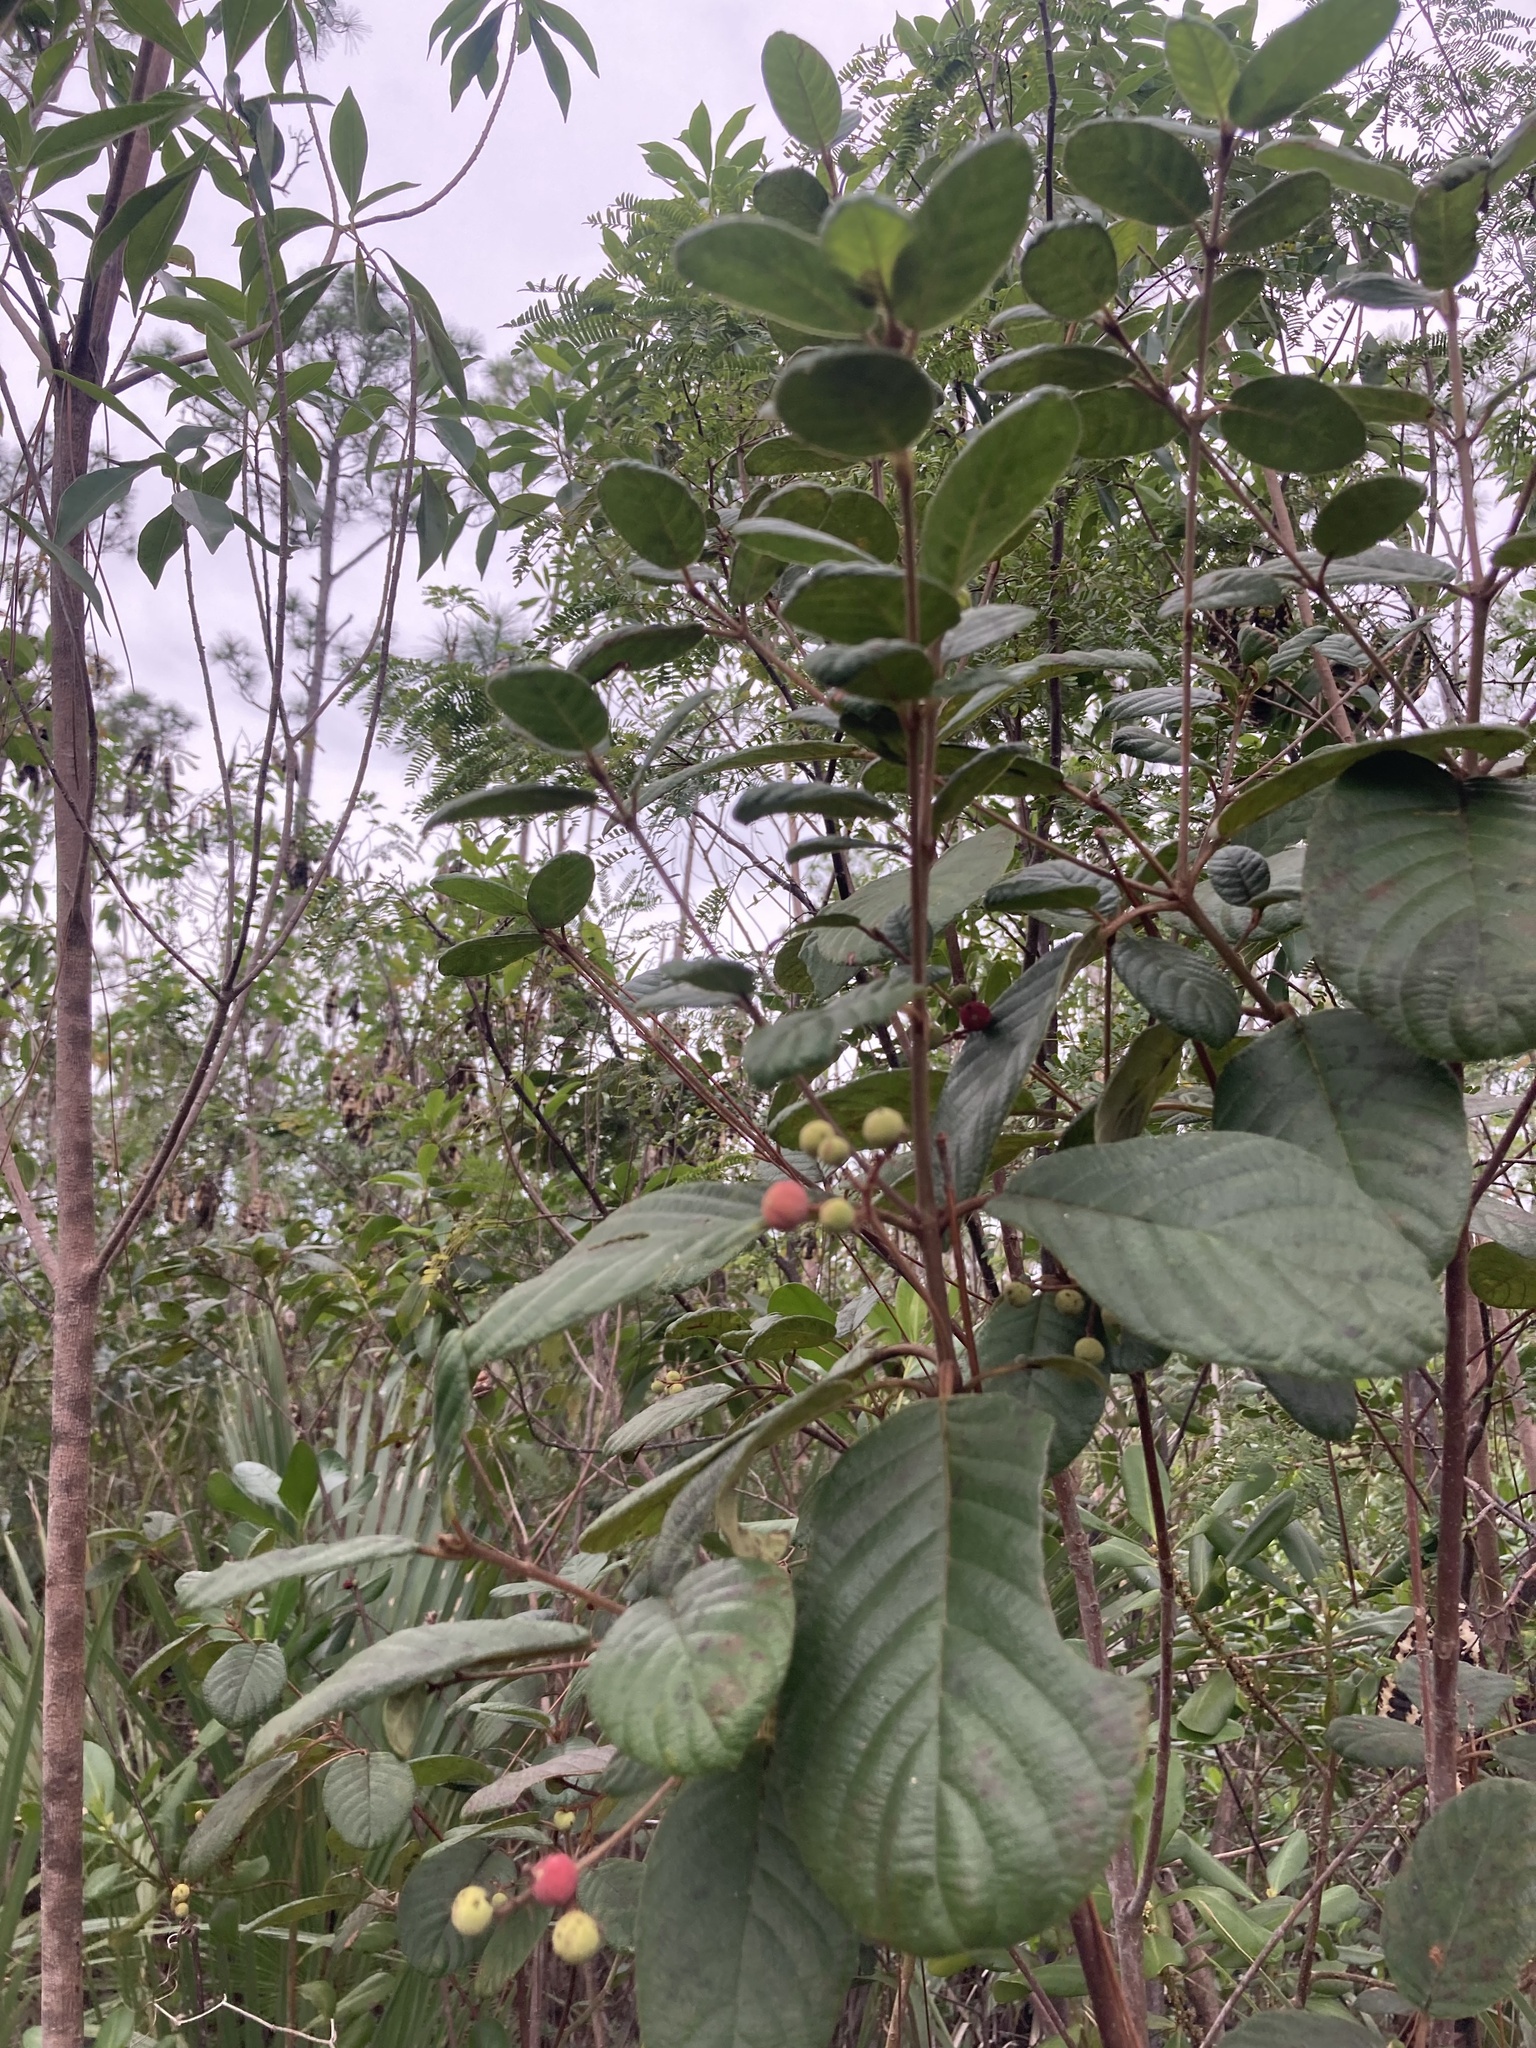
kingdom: Plantae
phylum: Tracheophyta
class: Magnoliopsida
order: Gentianales
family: Rubiaceae
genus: Guettarda
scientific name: Guettarda scabra
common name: Pigeon bay
